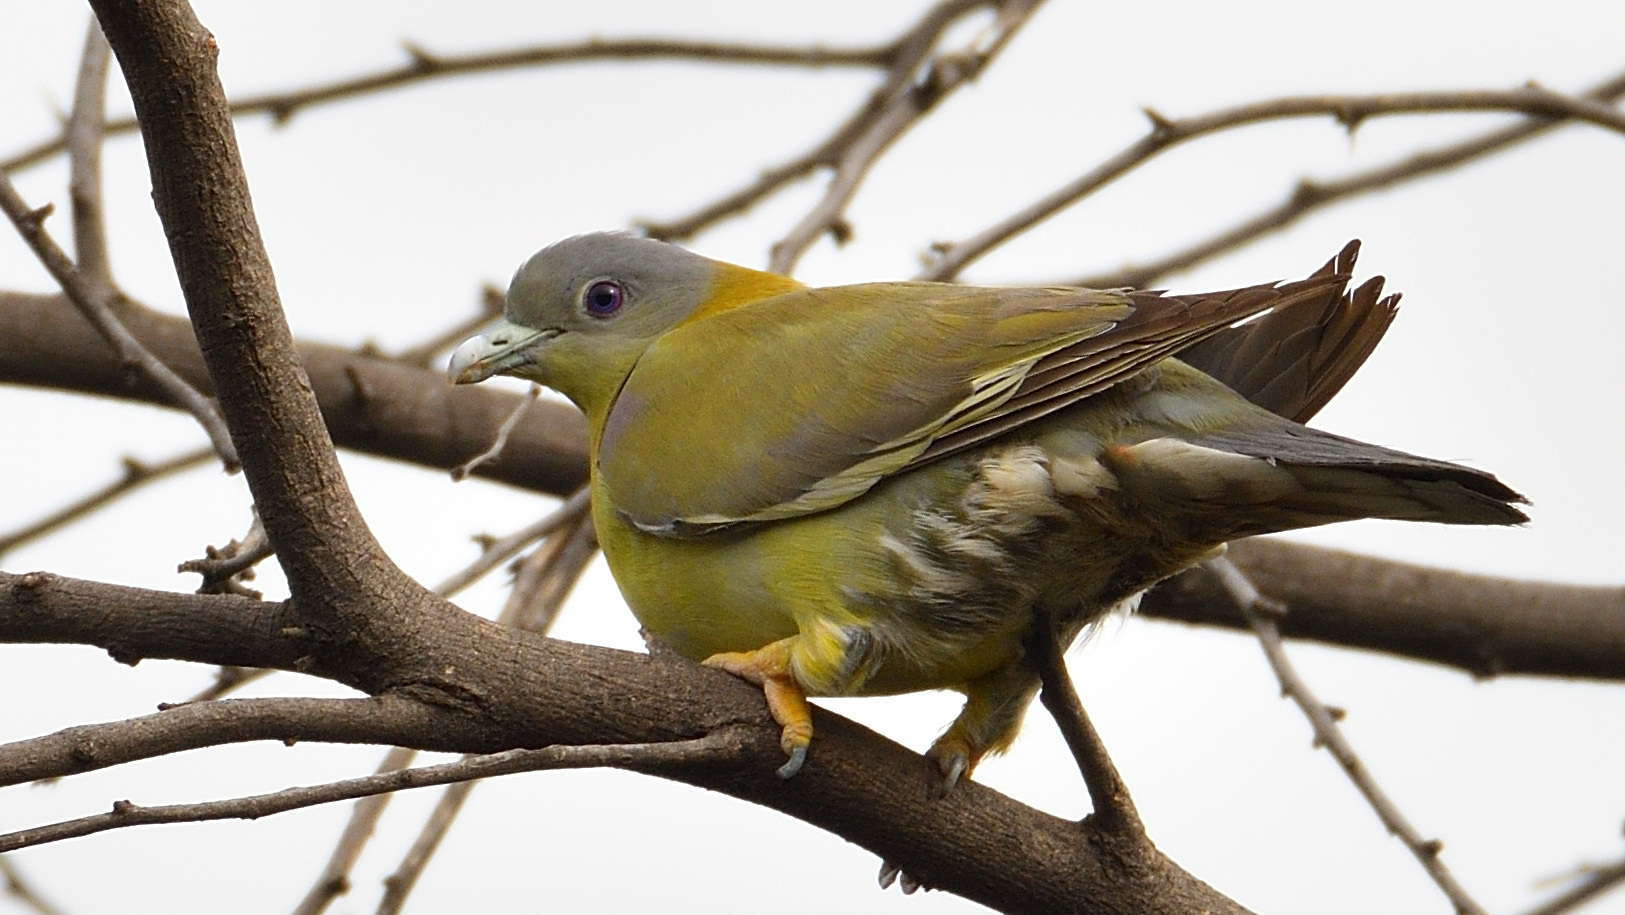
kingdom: Animalia
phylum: Chordata
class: Aves
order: Columbiformes
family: Columbidae
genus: Treron
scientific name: Treron phoenicopterus
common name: Yellow-footed green pigeon
